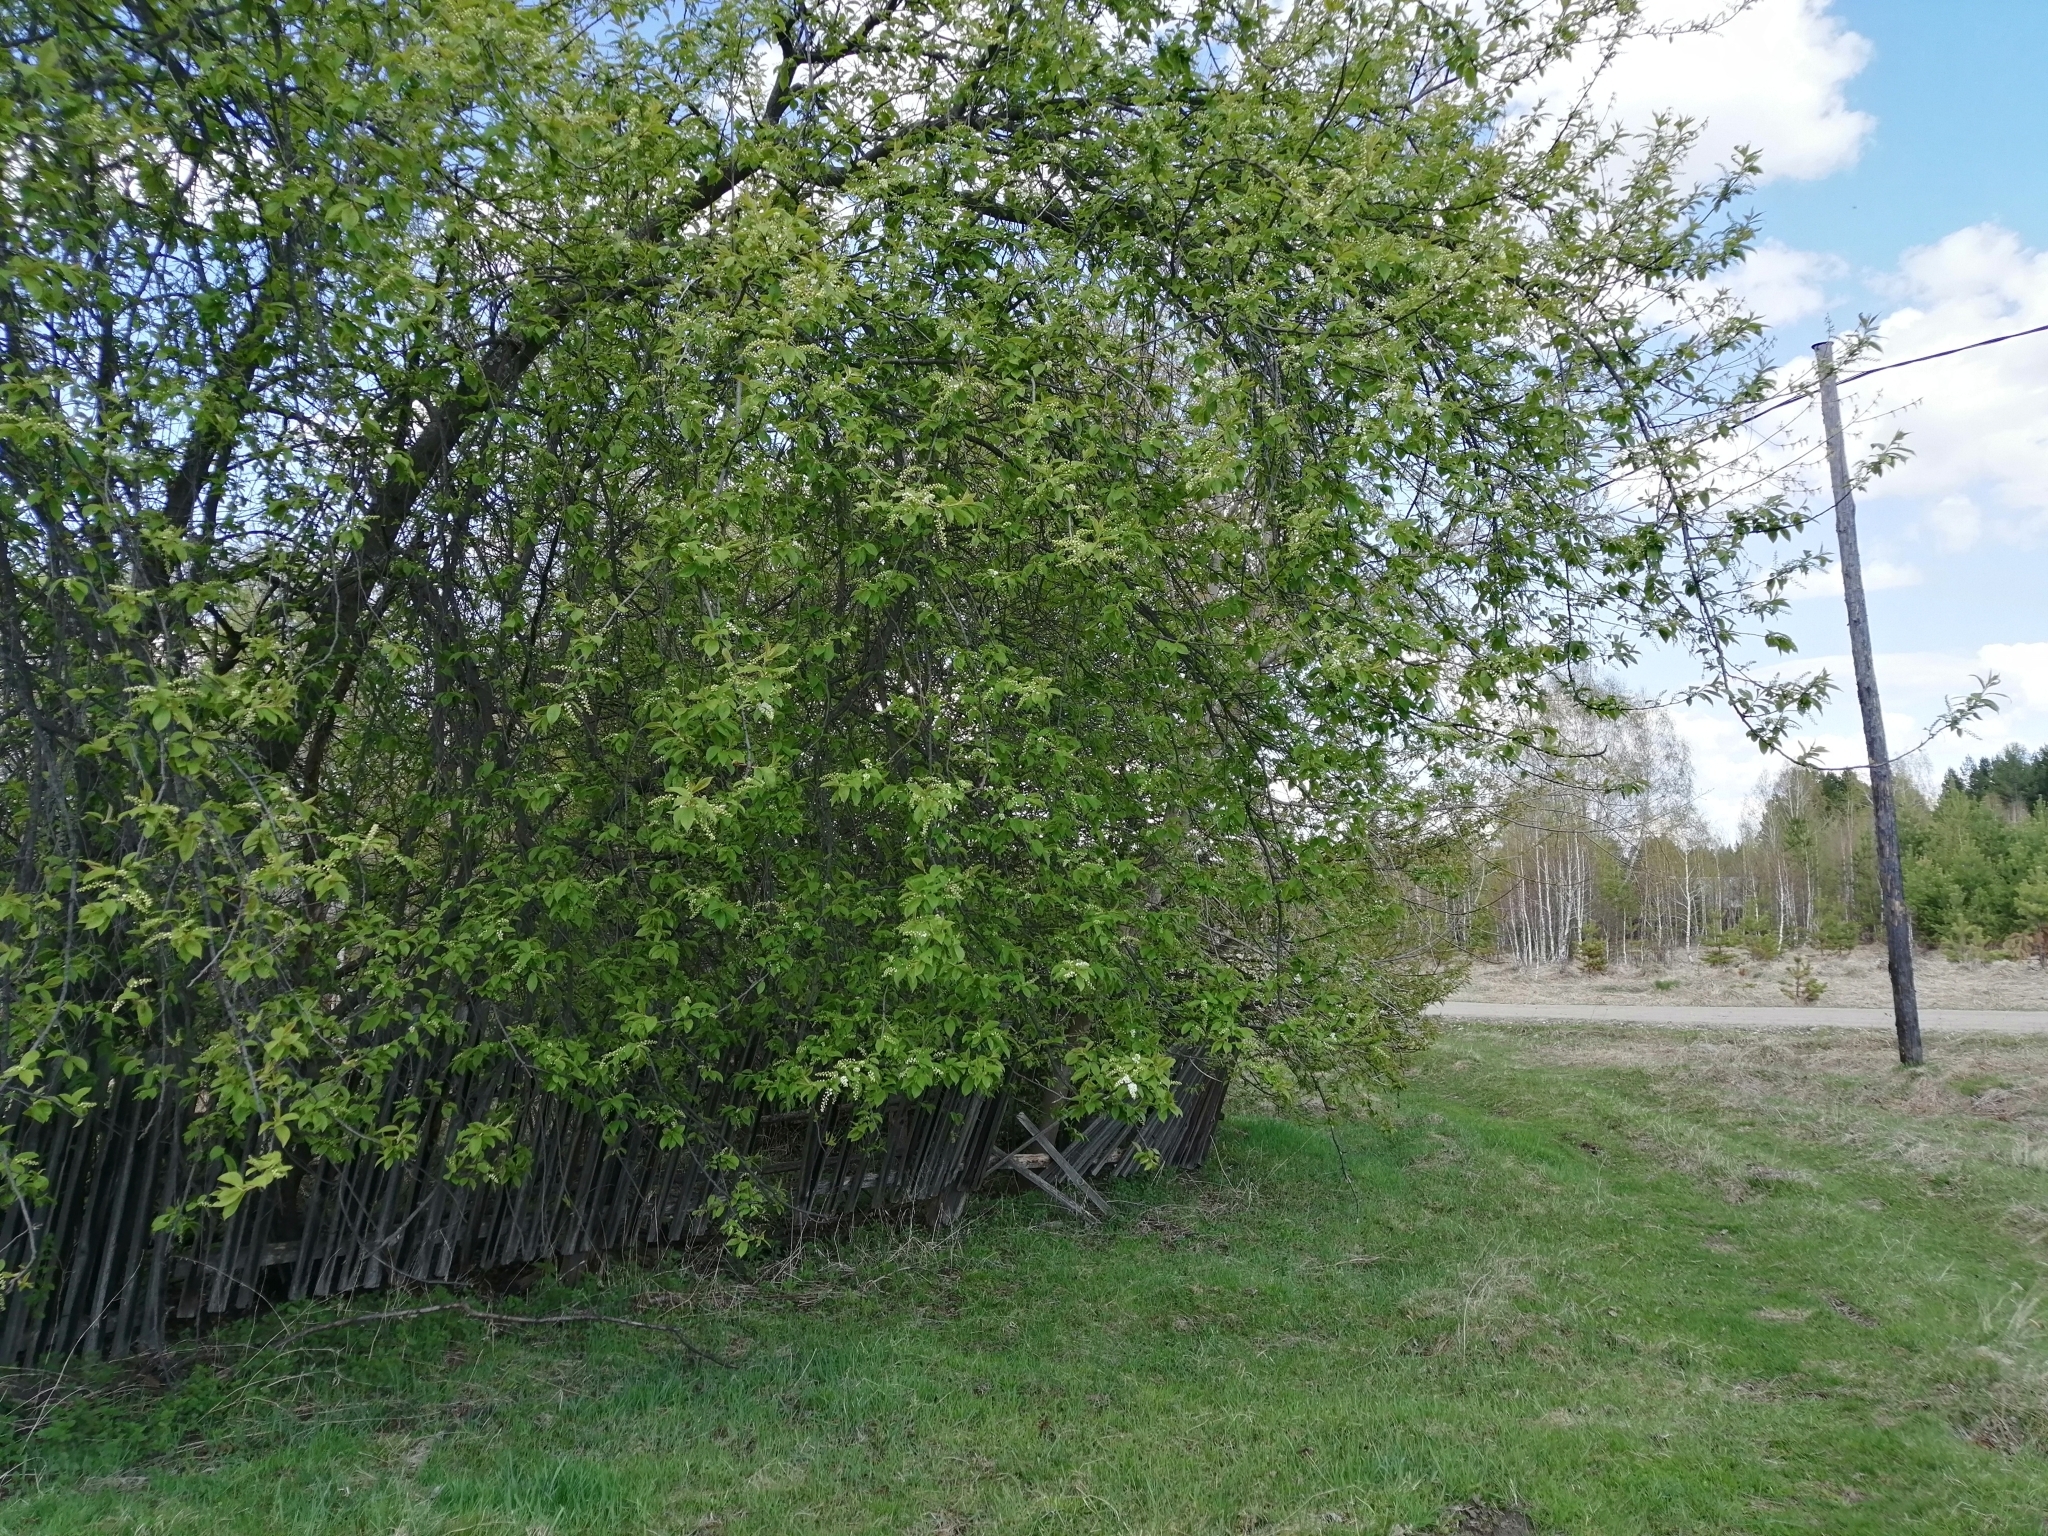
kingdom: Plantae
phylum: Tracheophyta
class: Magnoliopsida
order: Rosales
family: Rosaceae
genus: Prunus
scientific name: Prunus padus
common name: Bird cherry
